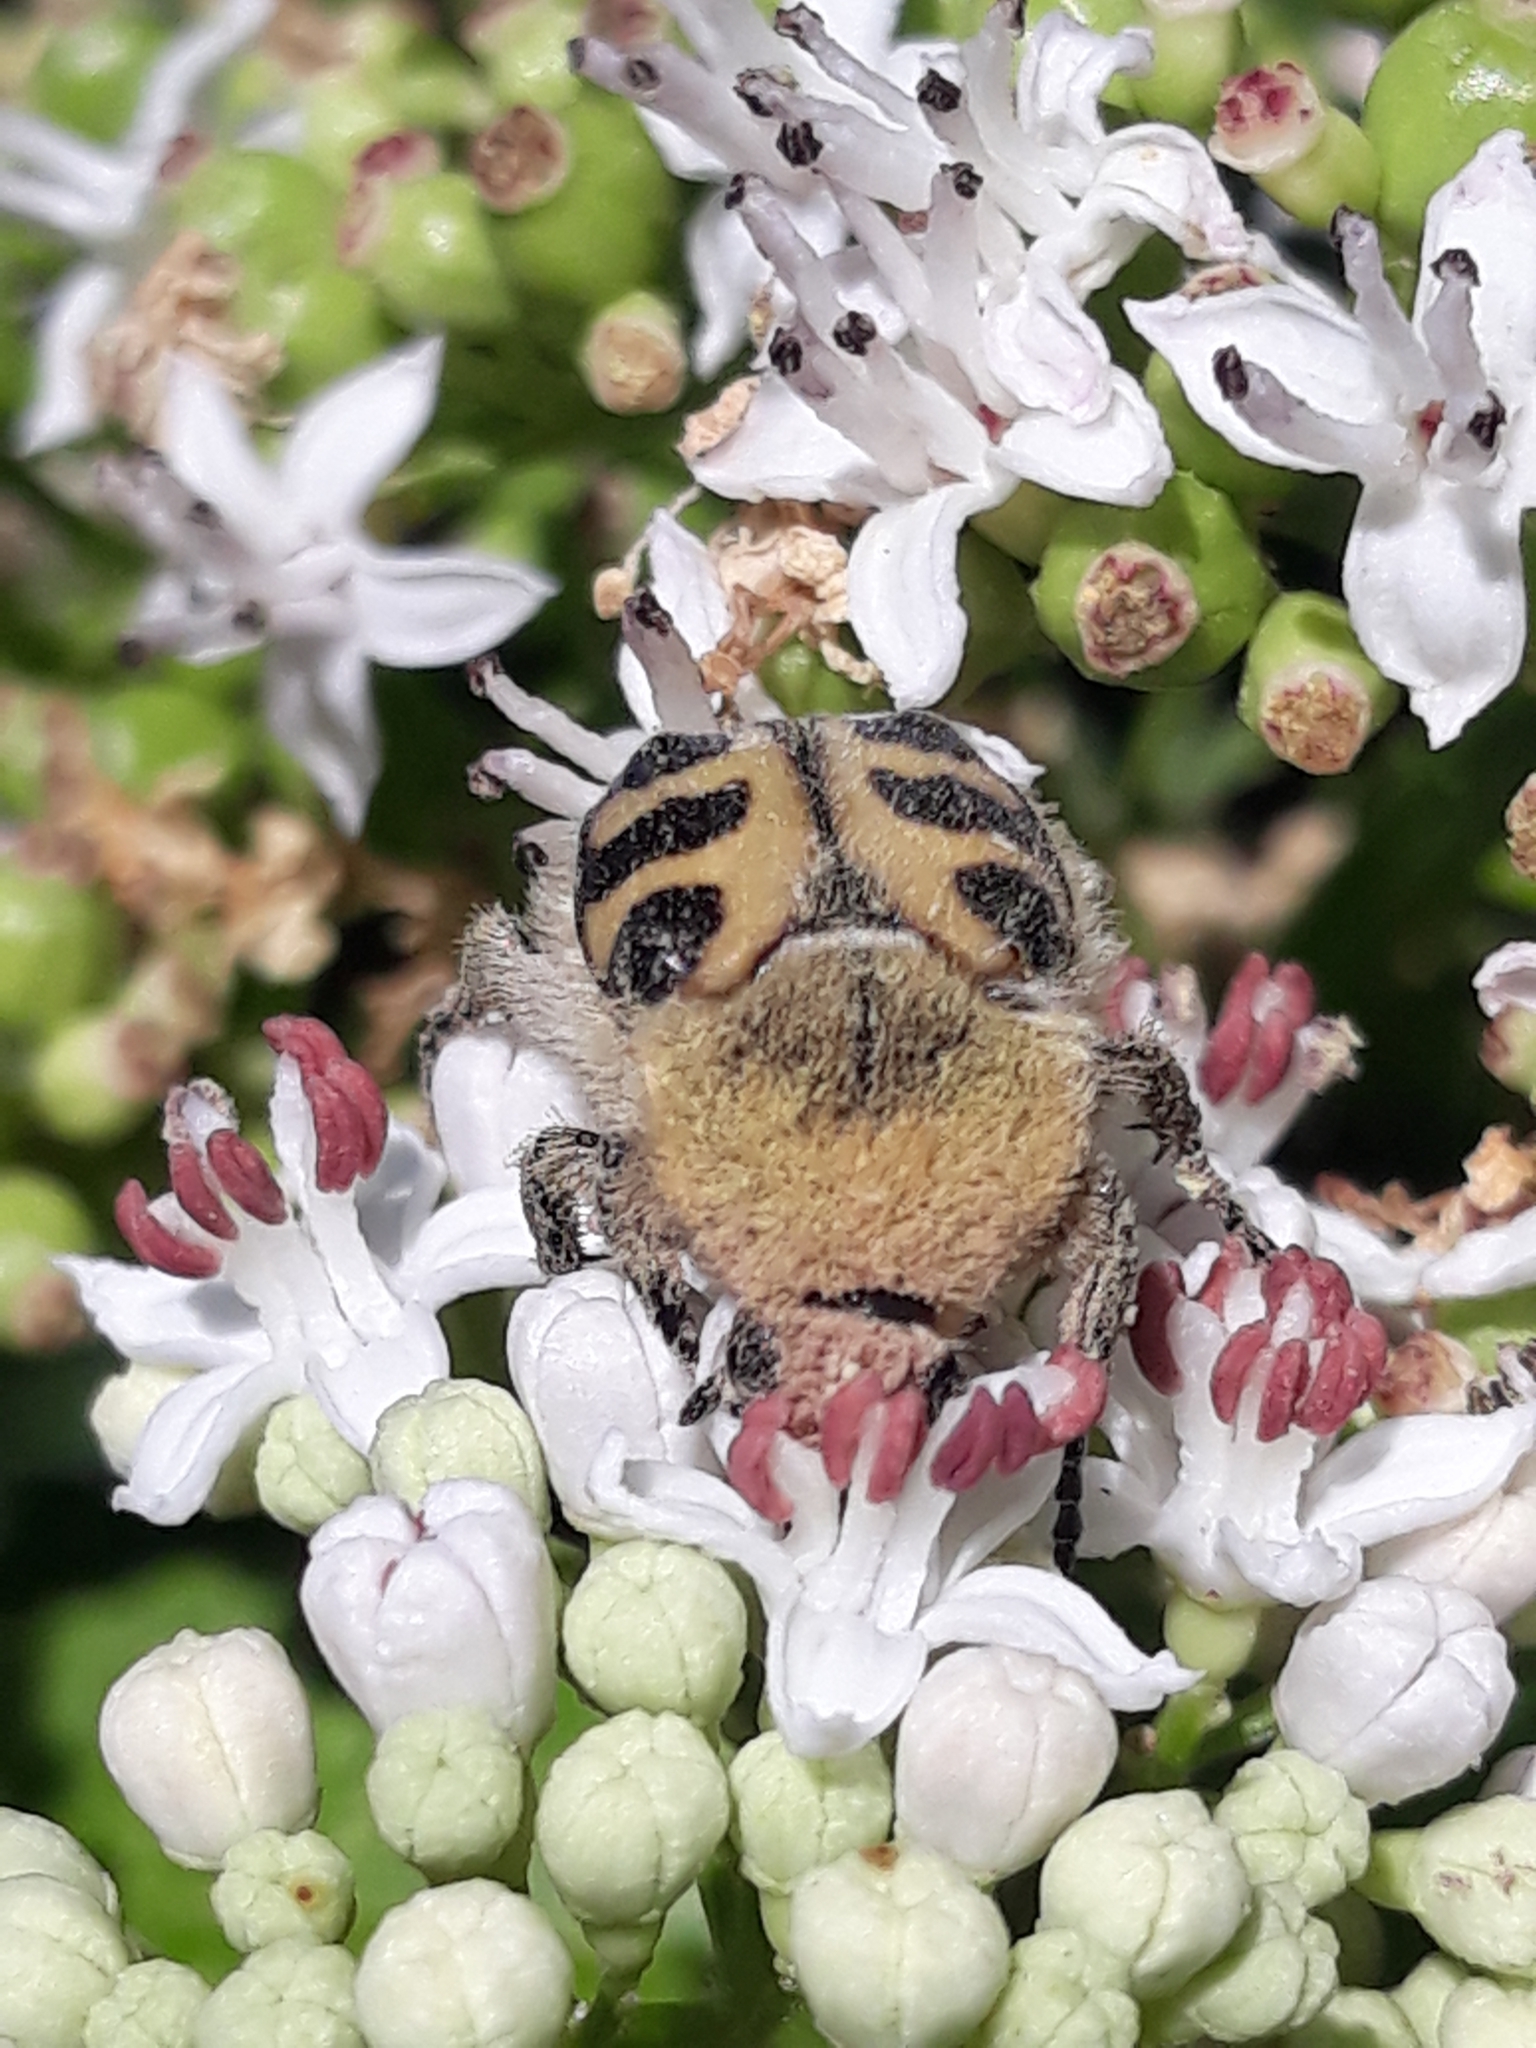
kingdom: Animalia
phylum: Arthropoda
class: Insecta
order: Coleoptera
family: Scarabaeidae
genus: Trichius
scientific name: Trichius gallicus
